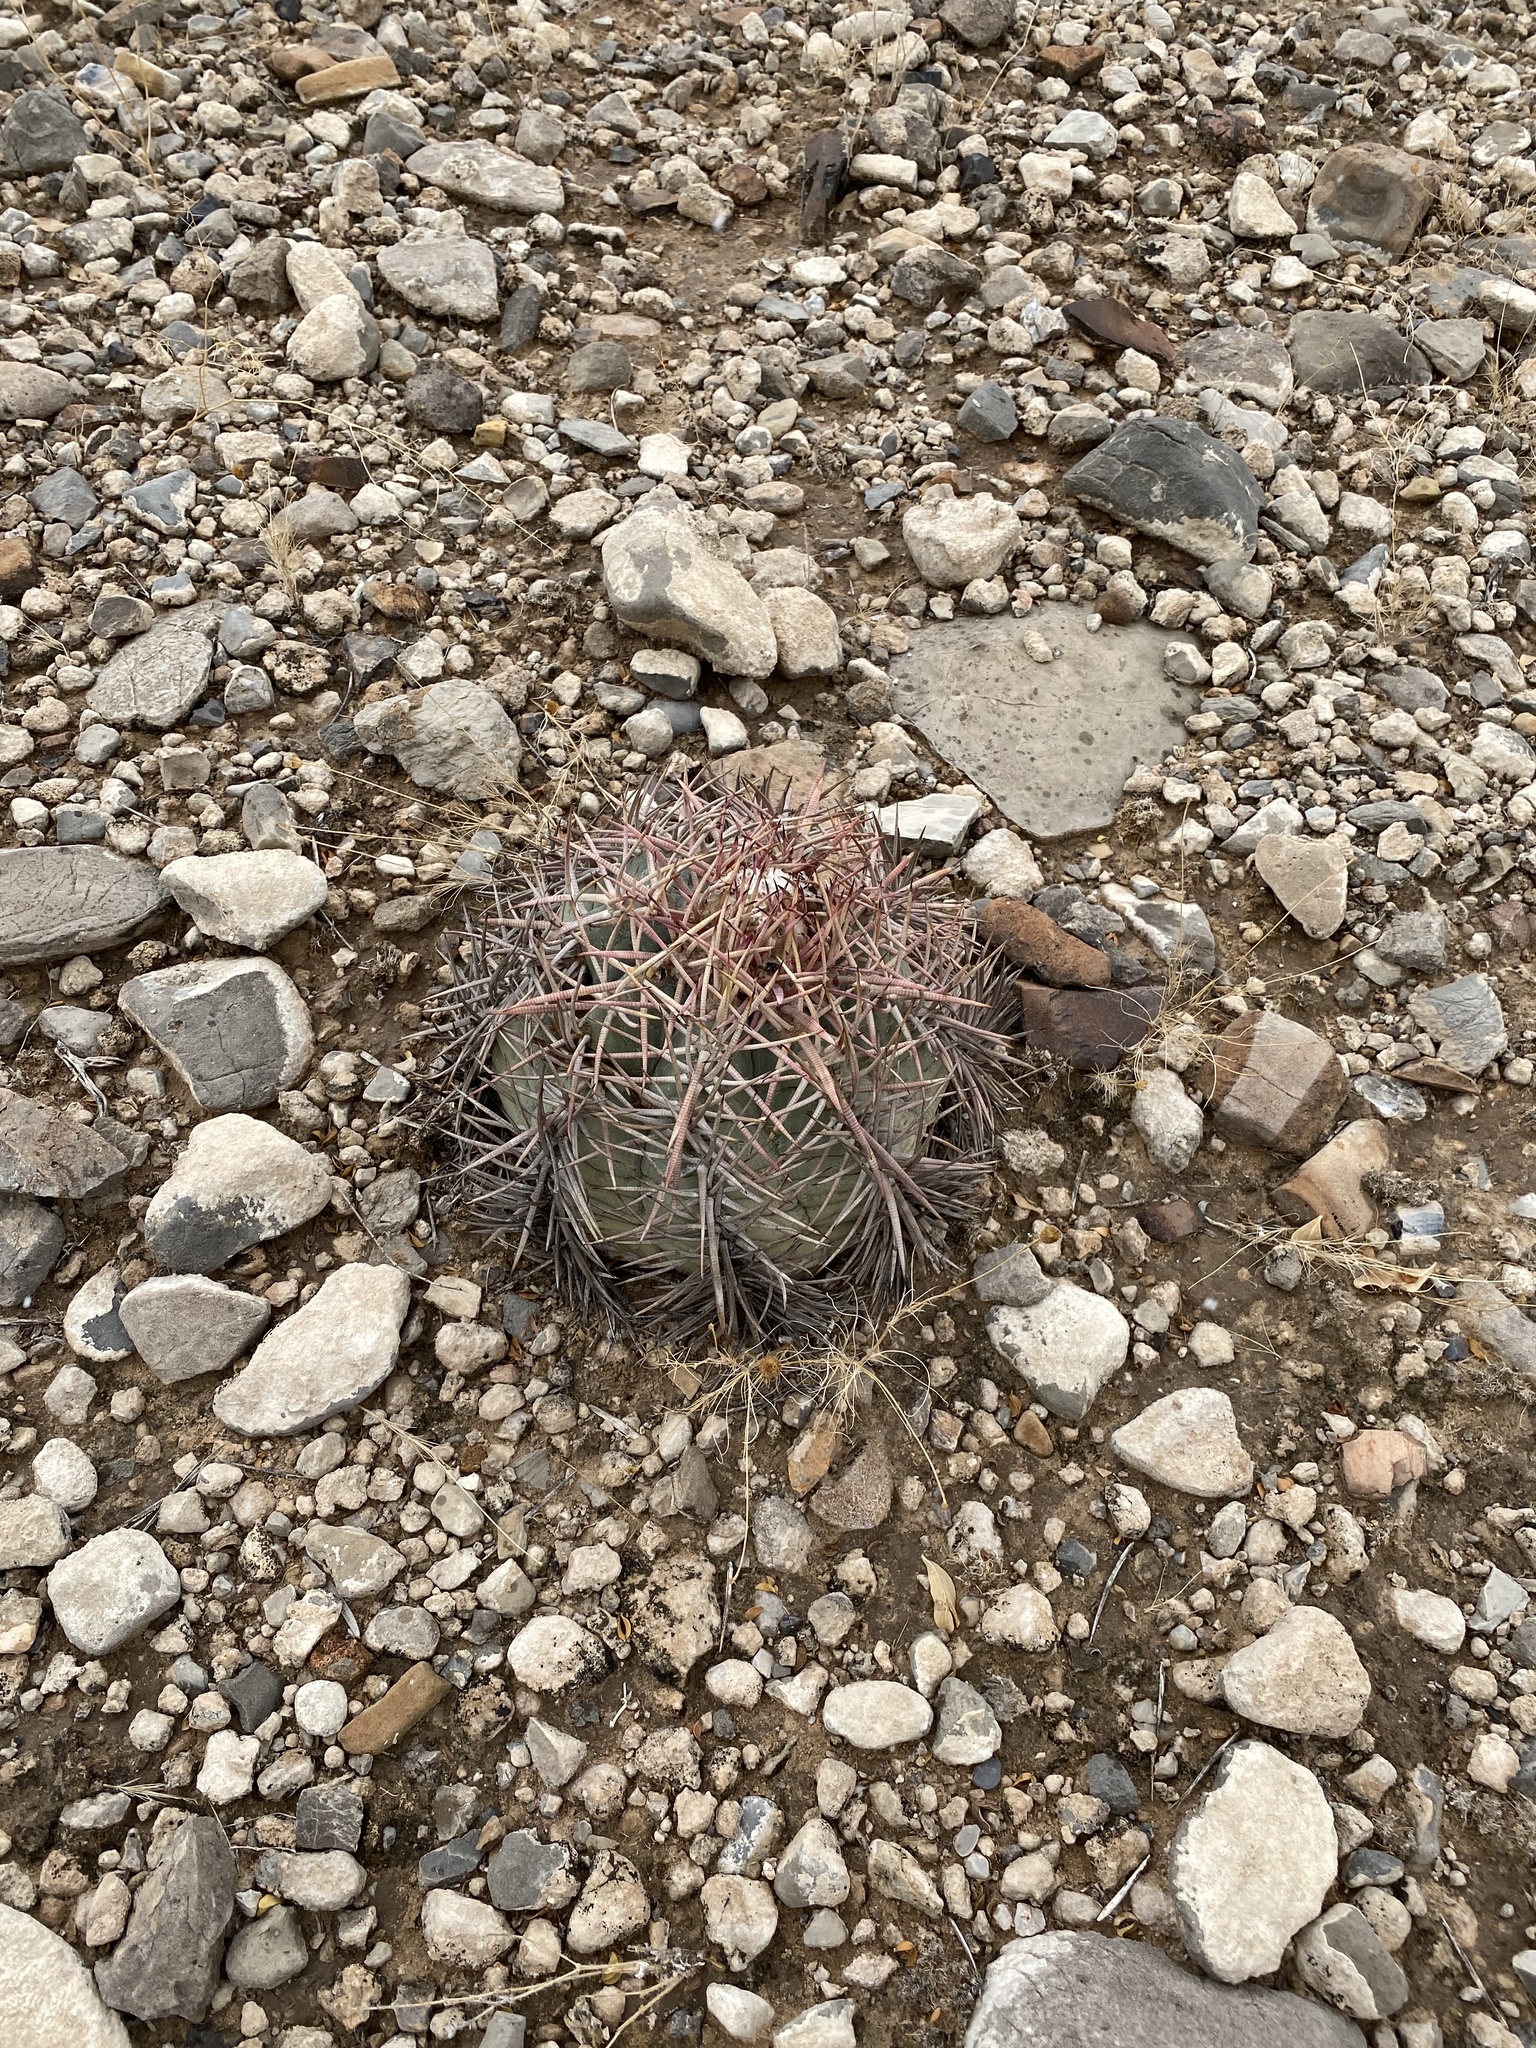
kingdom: Plantae
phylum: Tracheophyta
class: Magnoliopsida
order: Caryophyllales
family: Cactaceae
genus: Echinocactus
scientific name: Echinocactus horizonthalonius
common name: Devilshead
